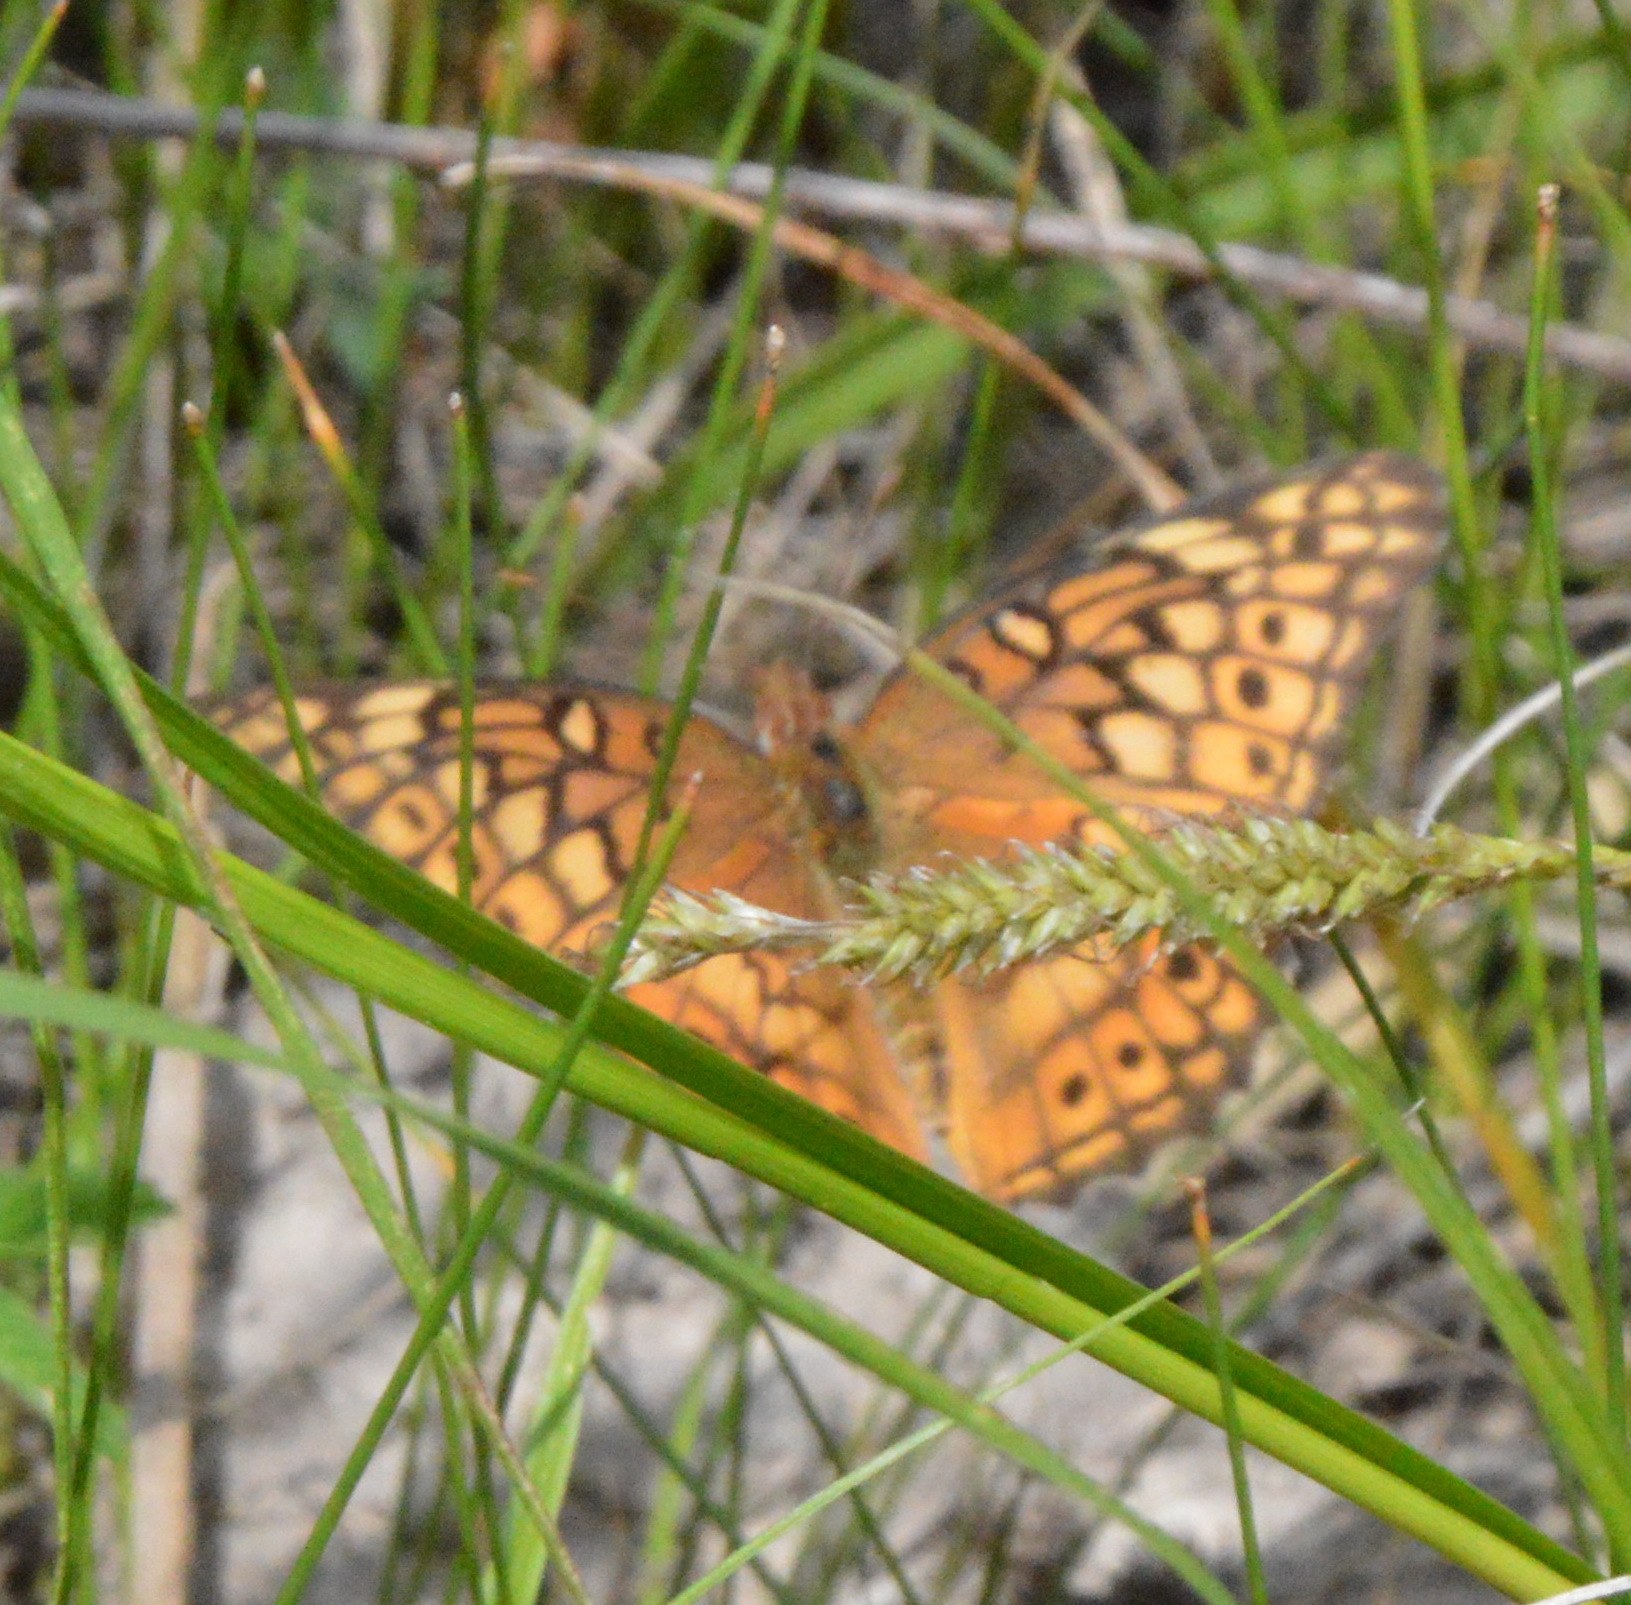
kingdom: Animalia
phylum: Arthropoda
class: Insecta
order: Lepidoptera
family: Nymphalidae
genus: Euptoieta
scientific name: Euptoieta claudia
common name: Variegated fritillary
